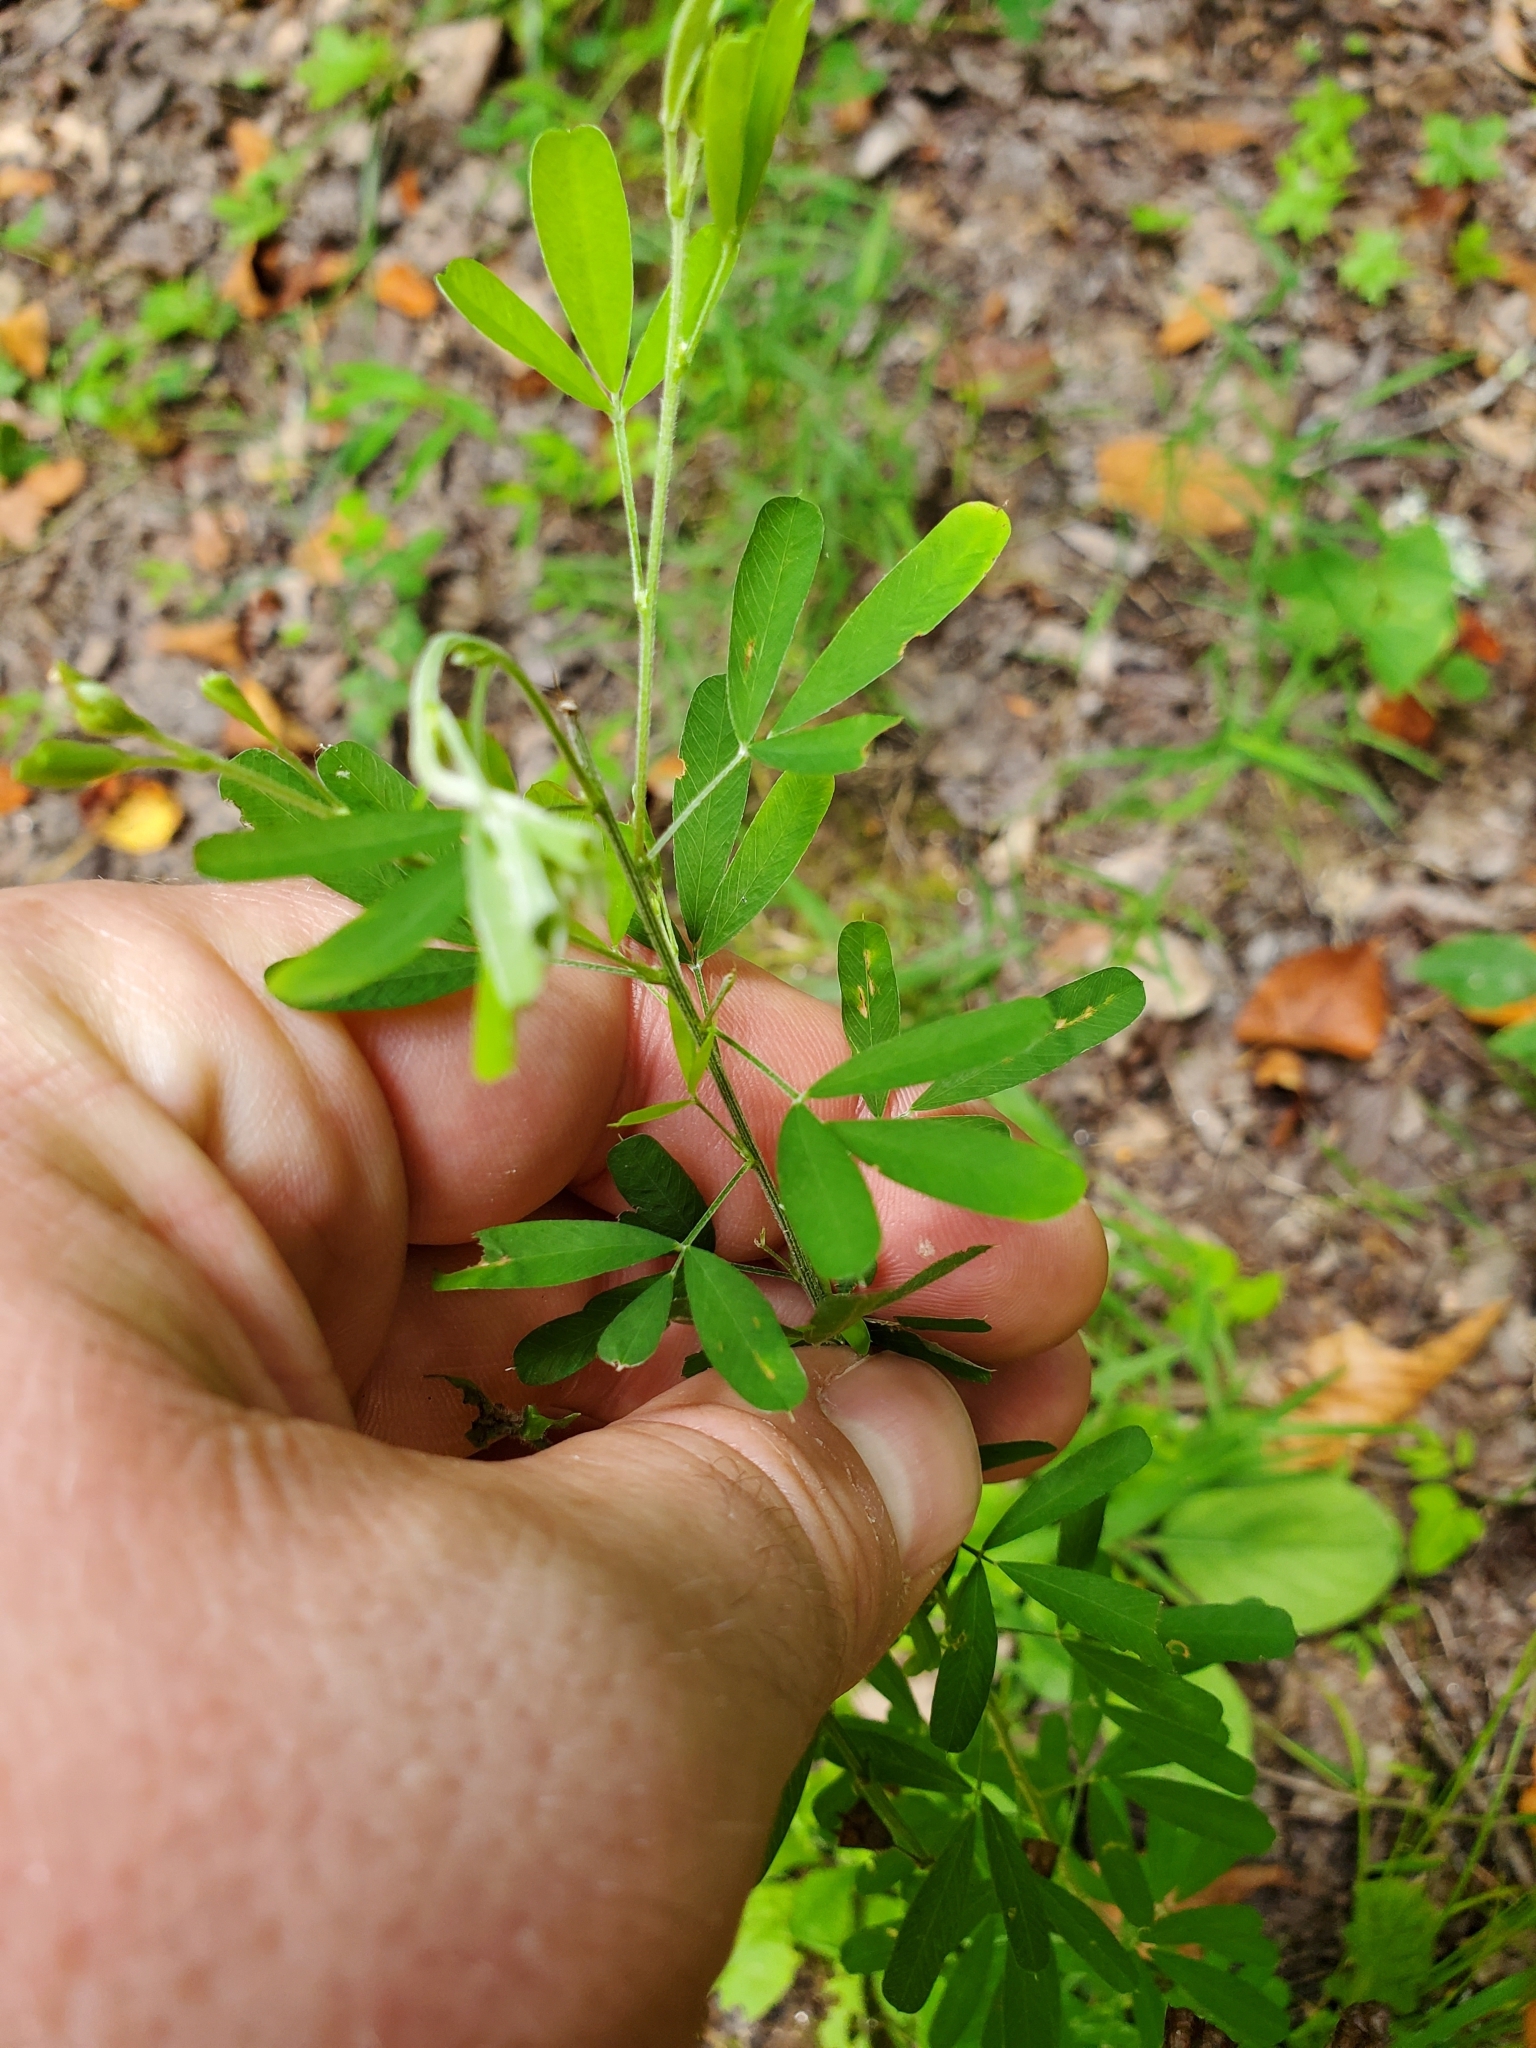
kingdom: Plantae
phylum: Tracheophyta
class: Magnoliopsida
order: Fabales
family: Fabaceae
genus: Lespedeza
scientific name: Lespedeza cuneata
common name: Chinese bush-clover
